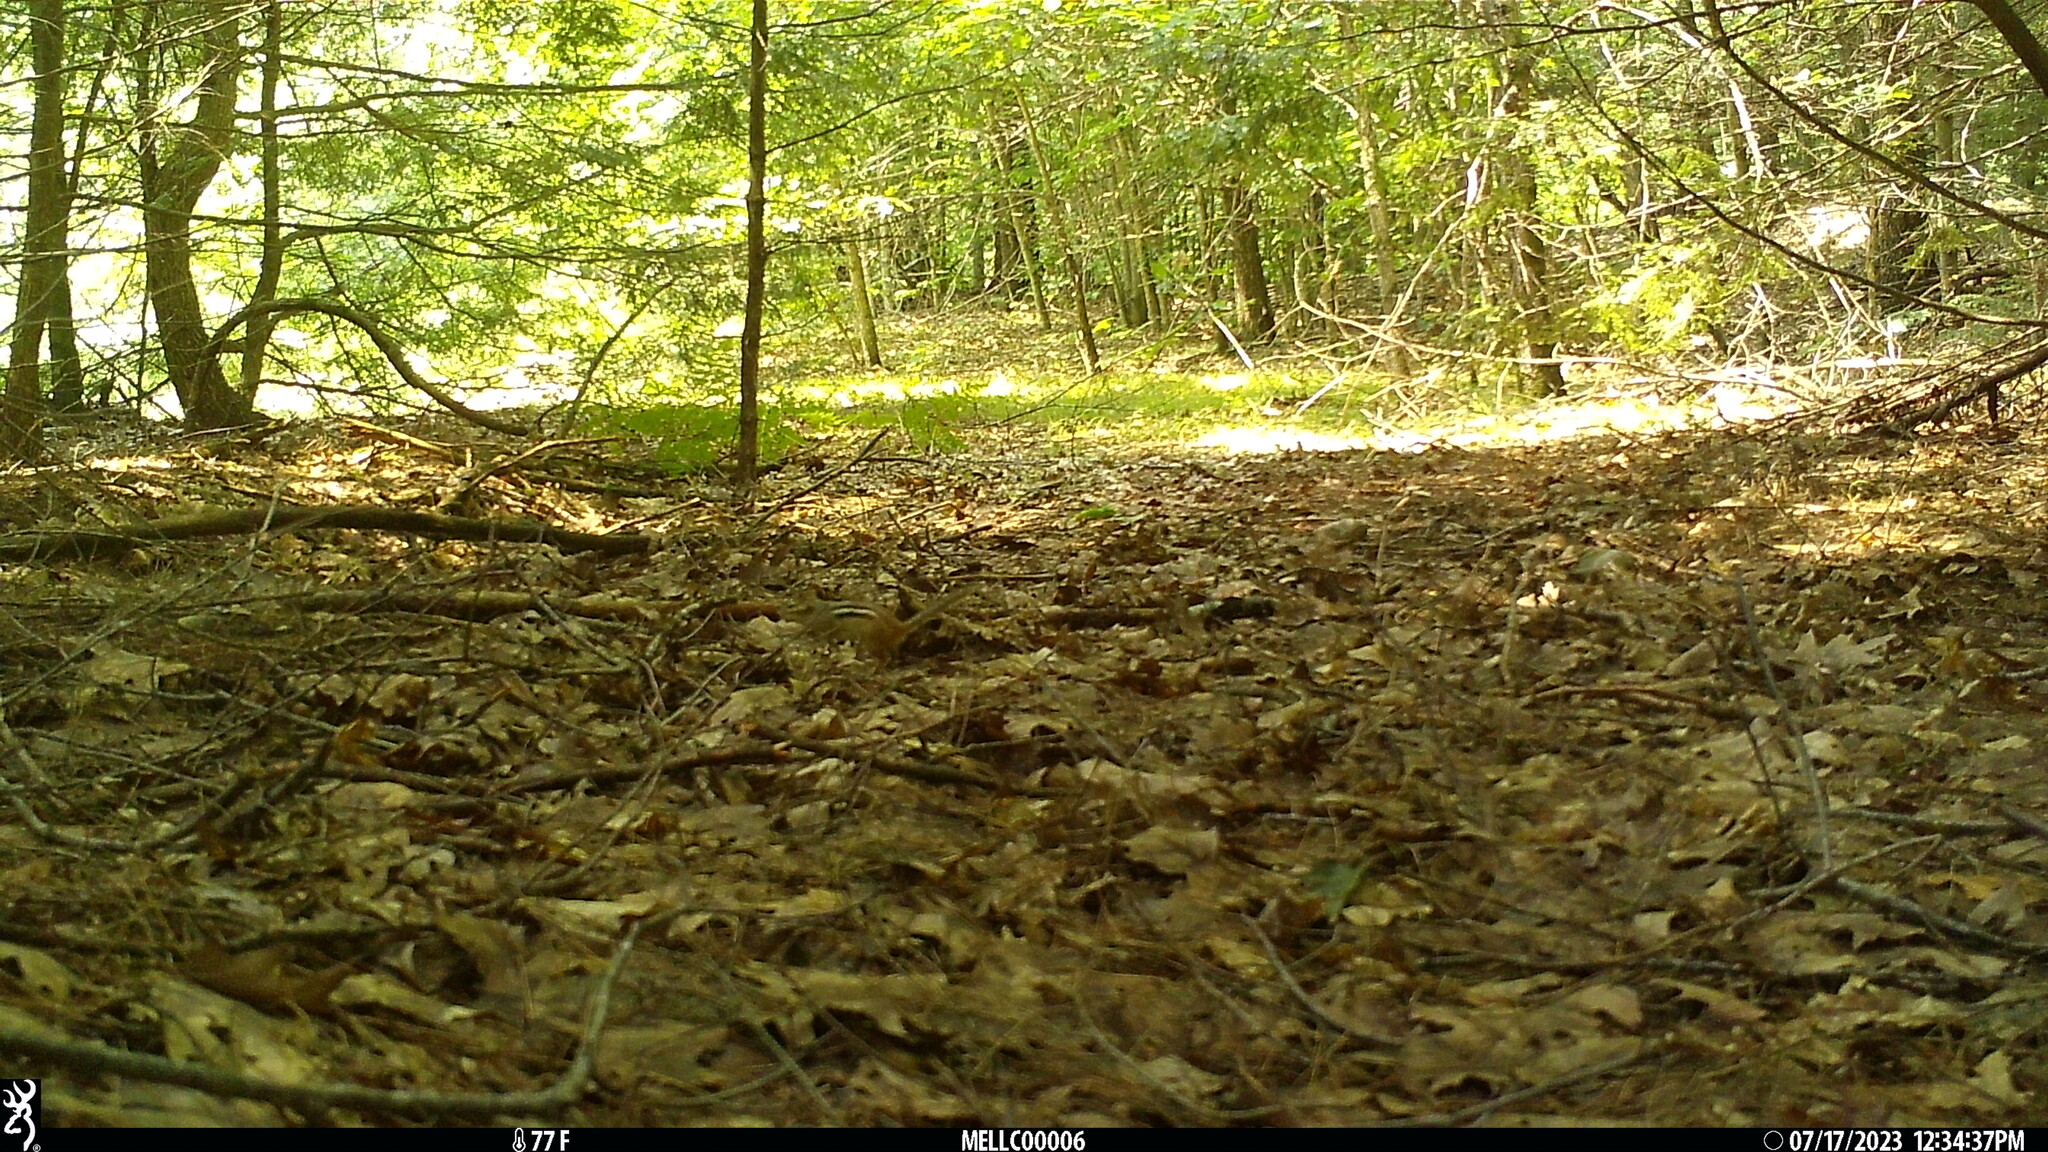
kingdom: Animalia
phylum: Chordata
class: Mammalia
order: Rodentia
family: Sciuridae
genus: Tamias
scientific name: Tamias striatus
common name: Eastern chipmunk
